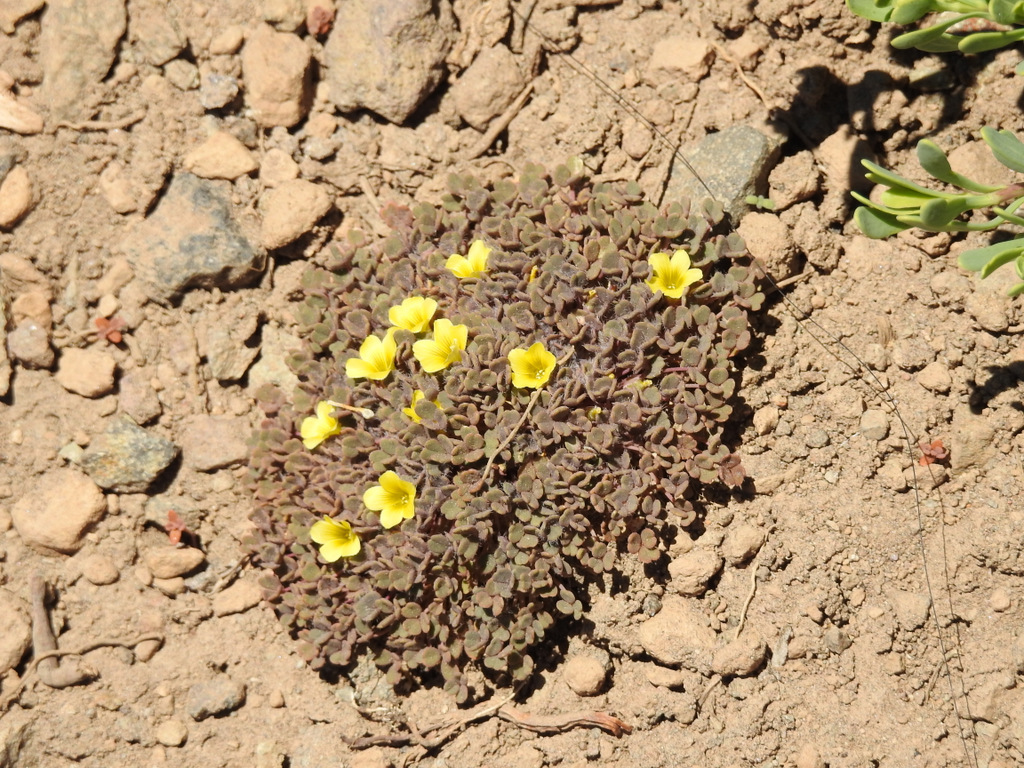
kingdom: Plantae
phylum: Tracheophyta
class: Magnoliopsida
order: Oxalidales
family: Oxalidaceae
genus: Oxalis
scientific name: Oxalis compacta
